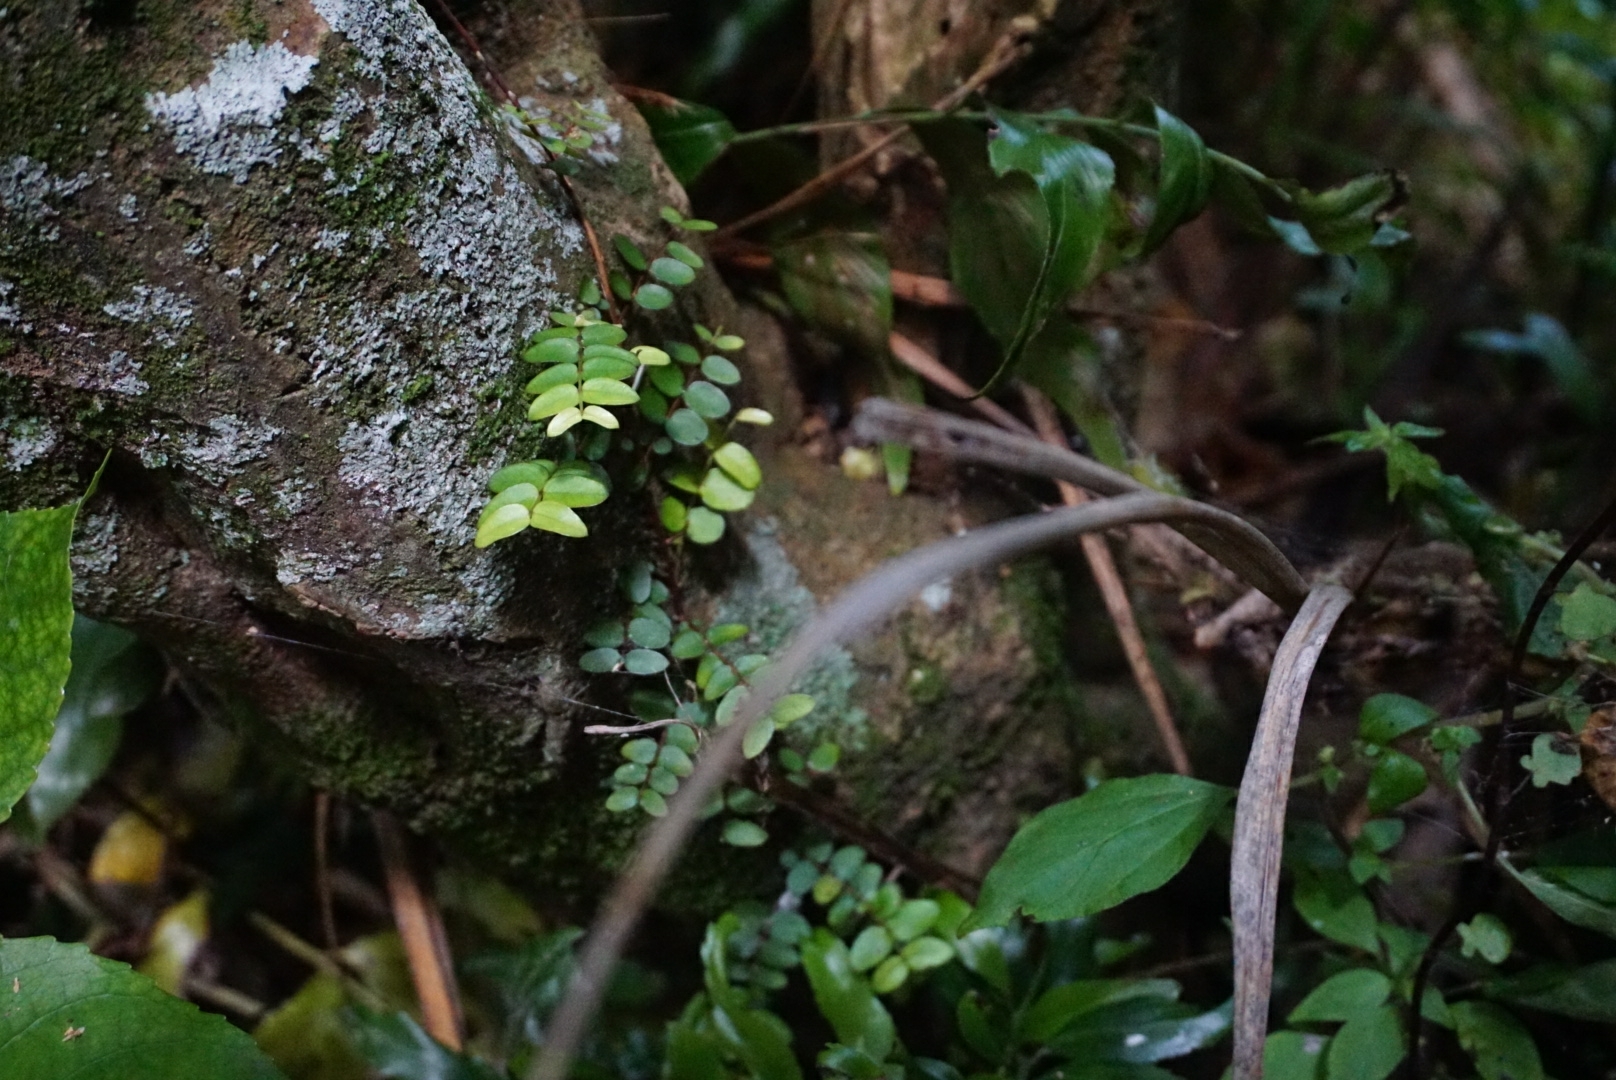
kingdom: Plantae
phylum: Tracheophyta
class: Magnoliopsida
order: Myrtales
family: Myrtaceae
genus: Metrosideros
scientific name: Metrosideros diffusa
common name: Small ratavine
